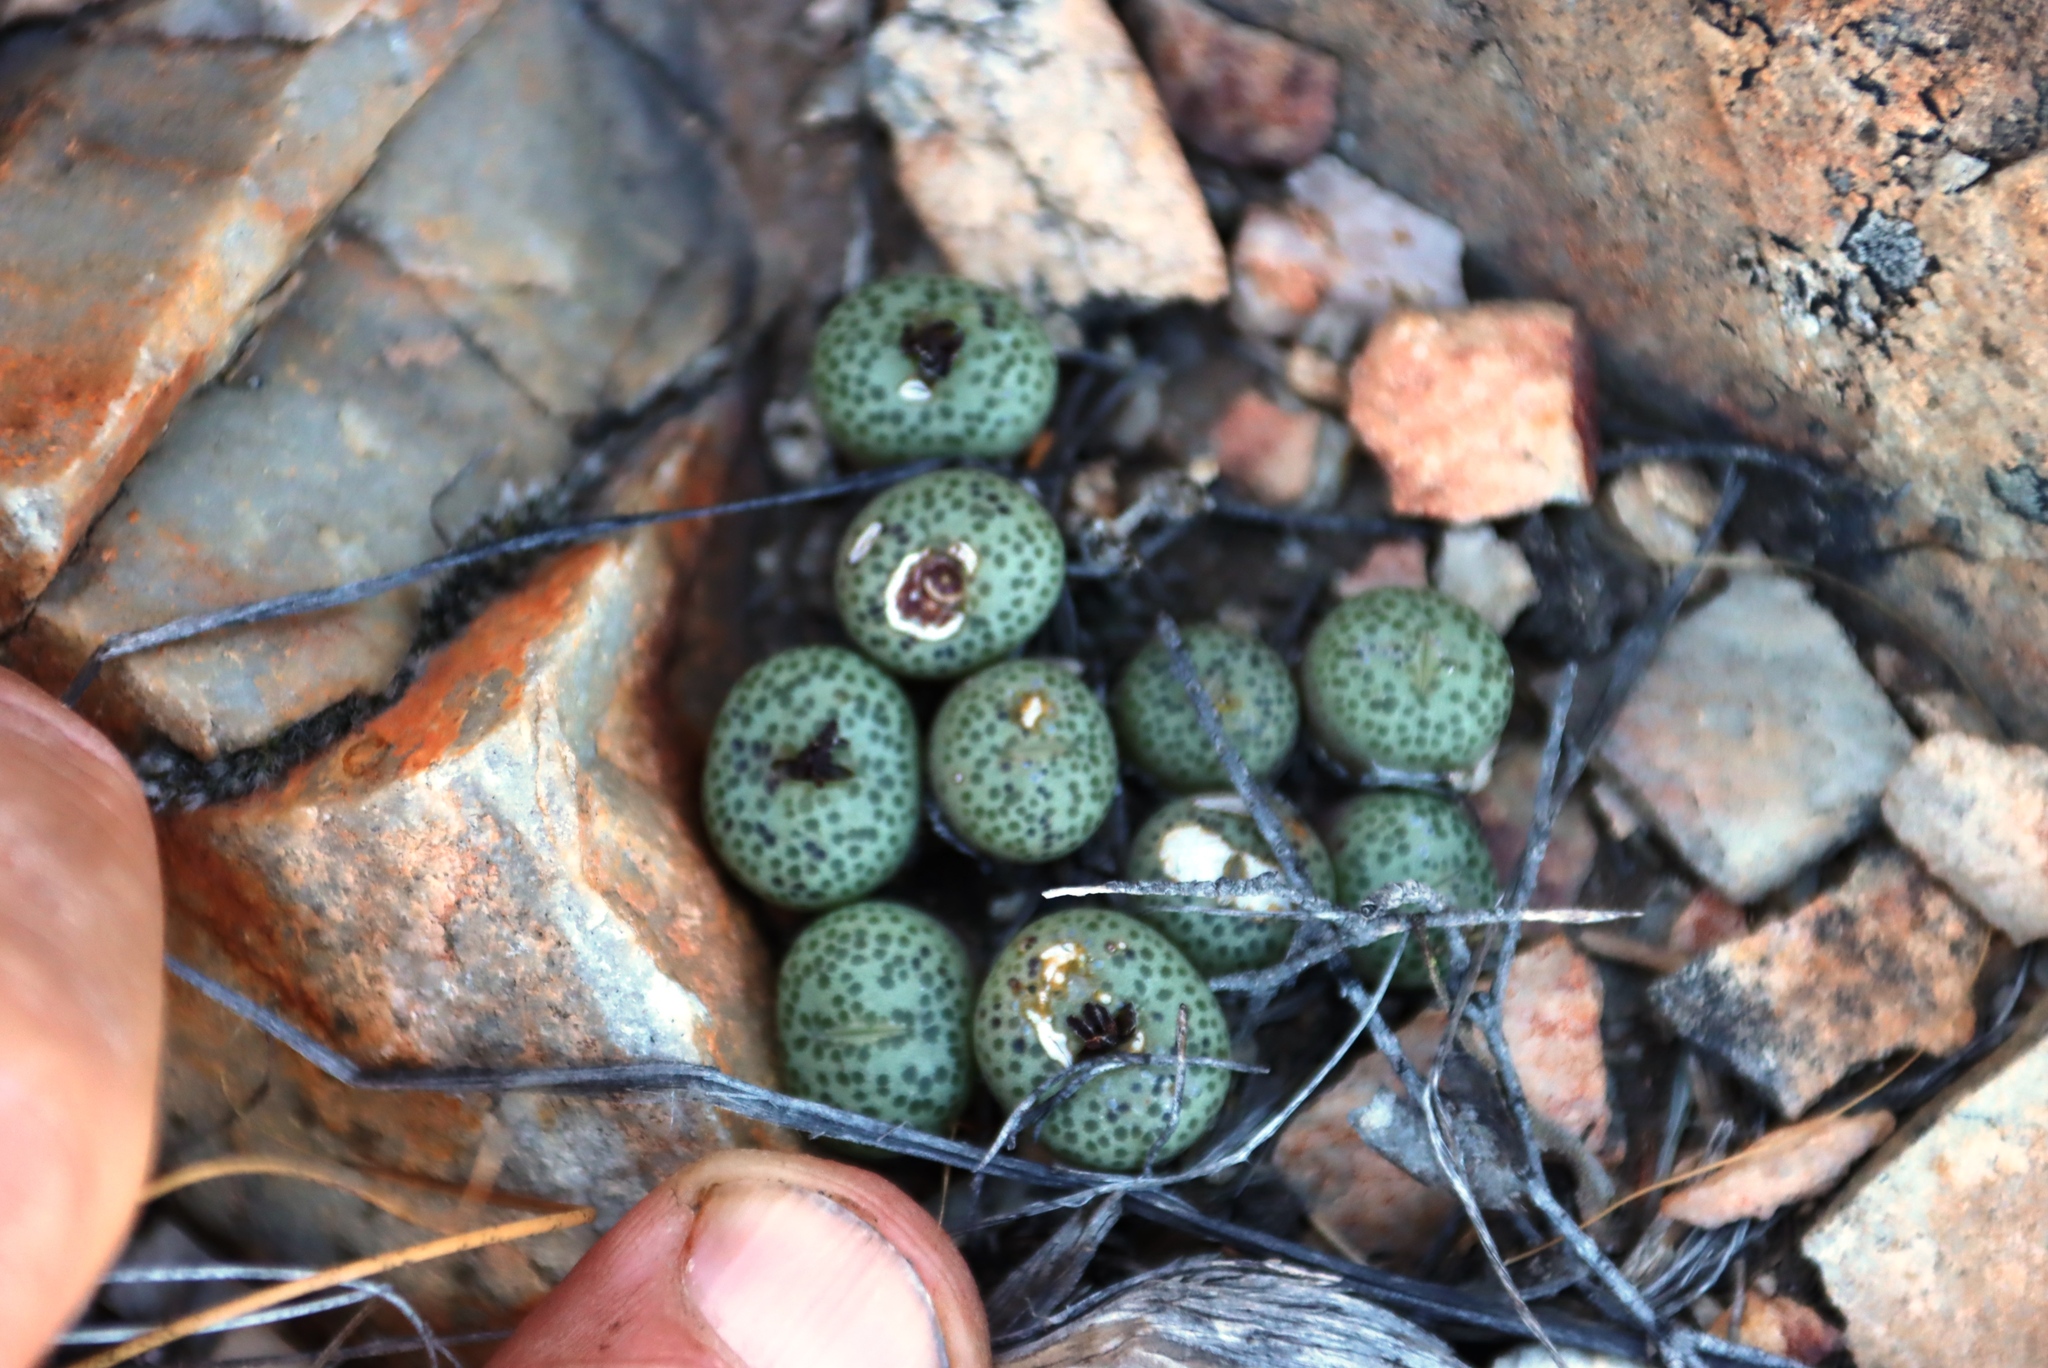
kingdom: Plantae
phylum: Tracheophyta
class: Magnoliopsida
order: Caryophyllales
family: Aizoaceae
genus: Conophytum
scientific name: Conophytum truncatum
